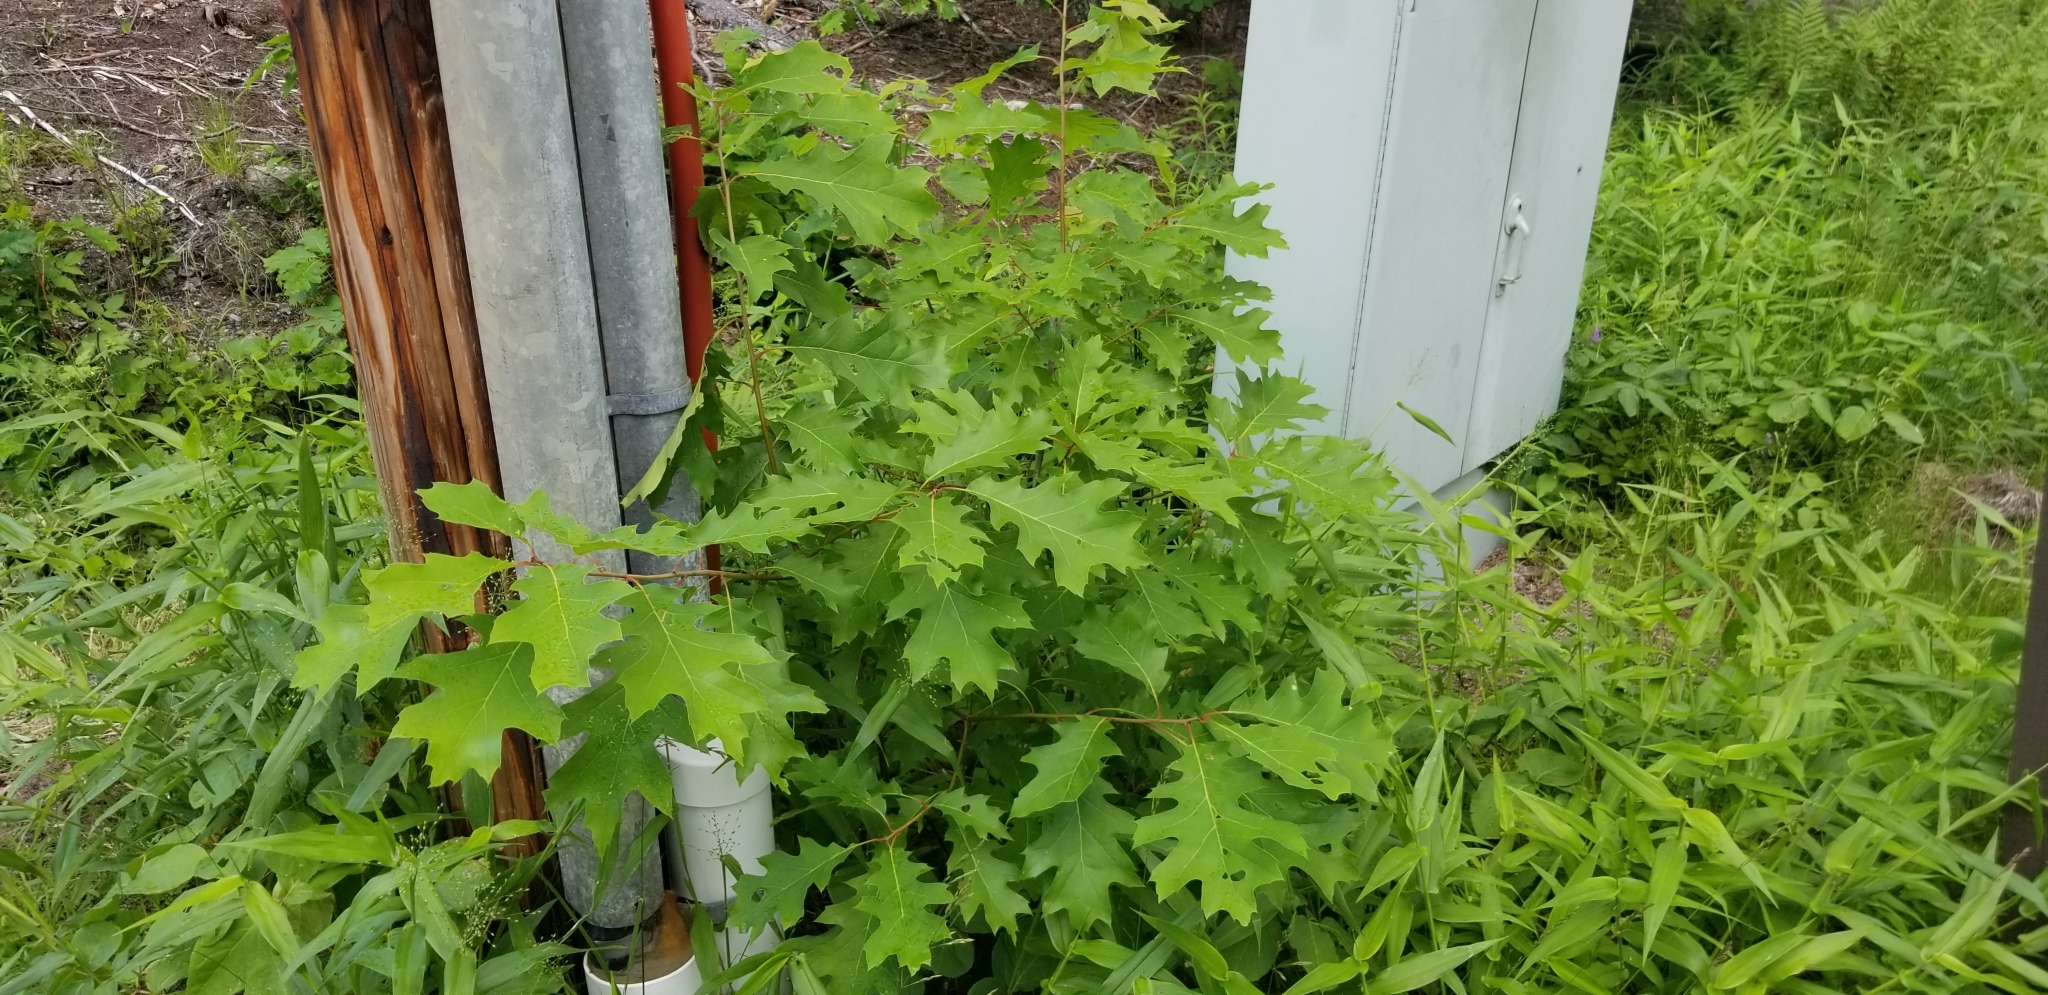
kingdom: Plantae
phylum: Tracheophyta
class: Magnoliopsida
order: Fagales
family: Fagaceae
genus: Quercus
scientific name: Quercus rubra
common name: Red oak
